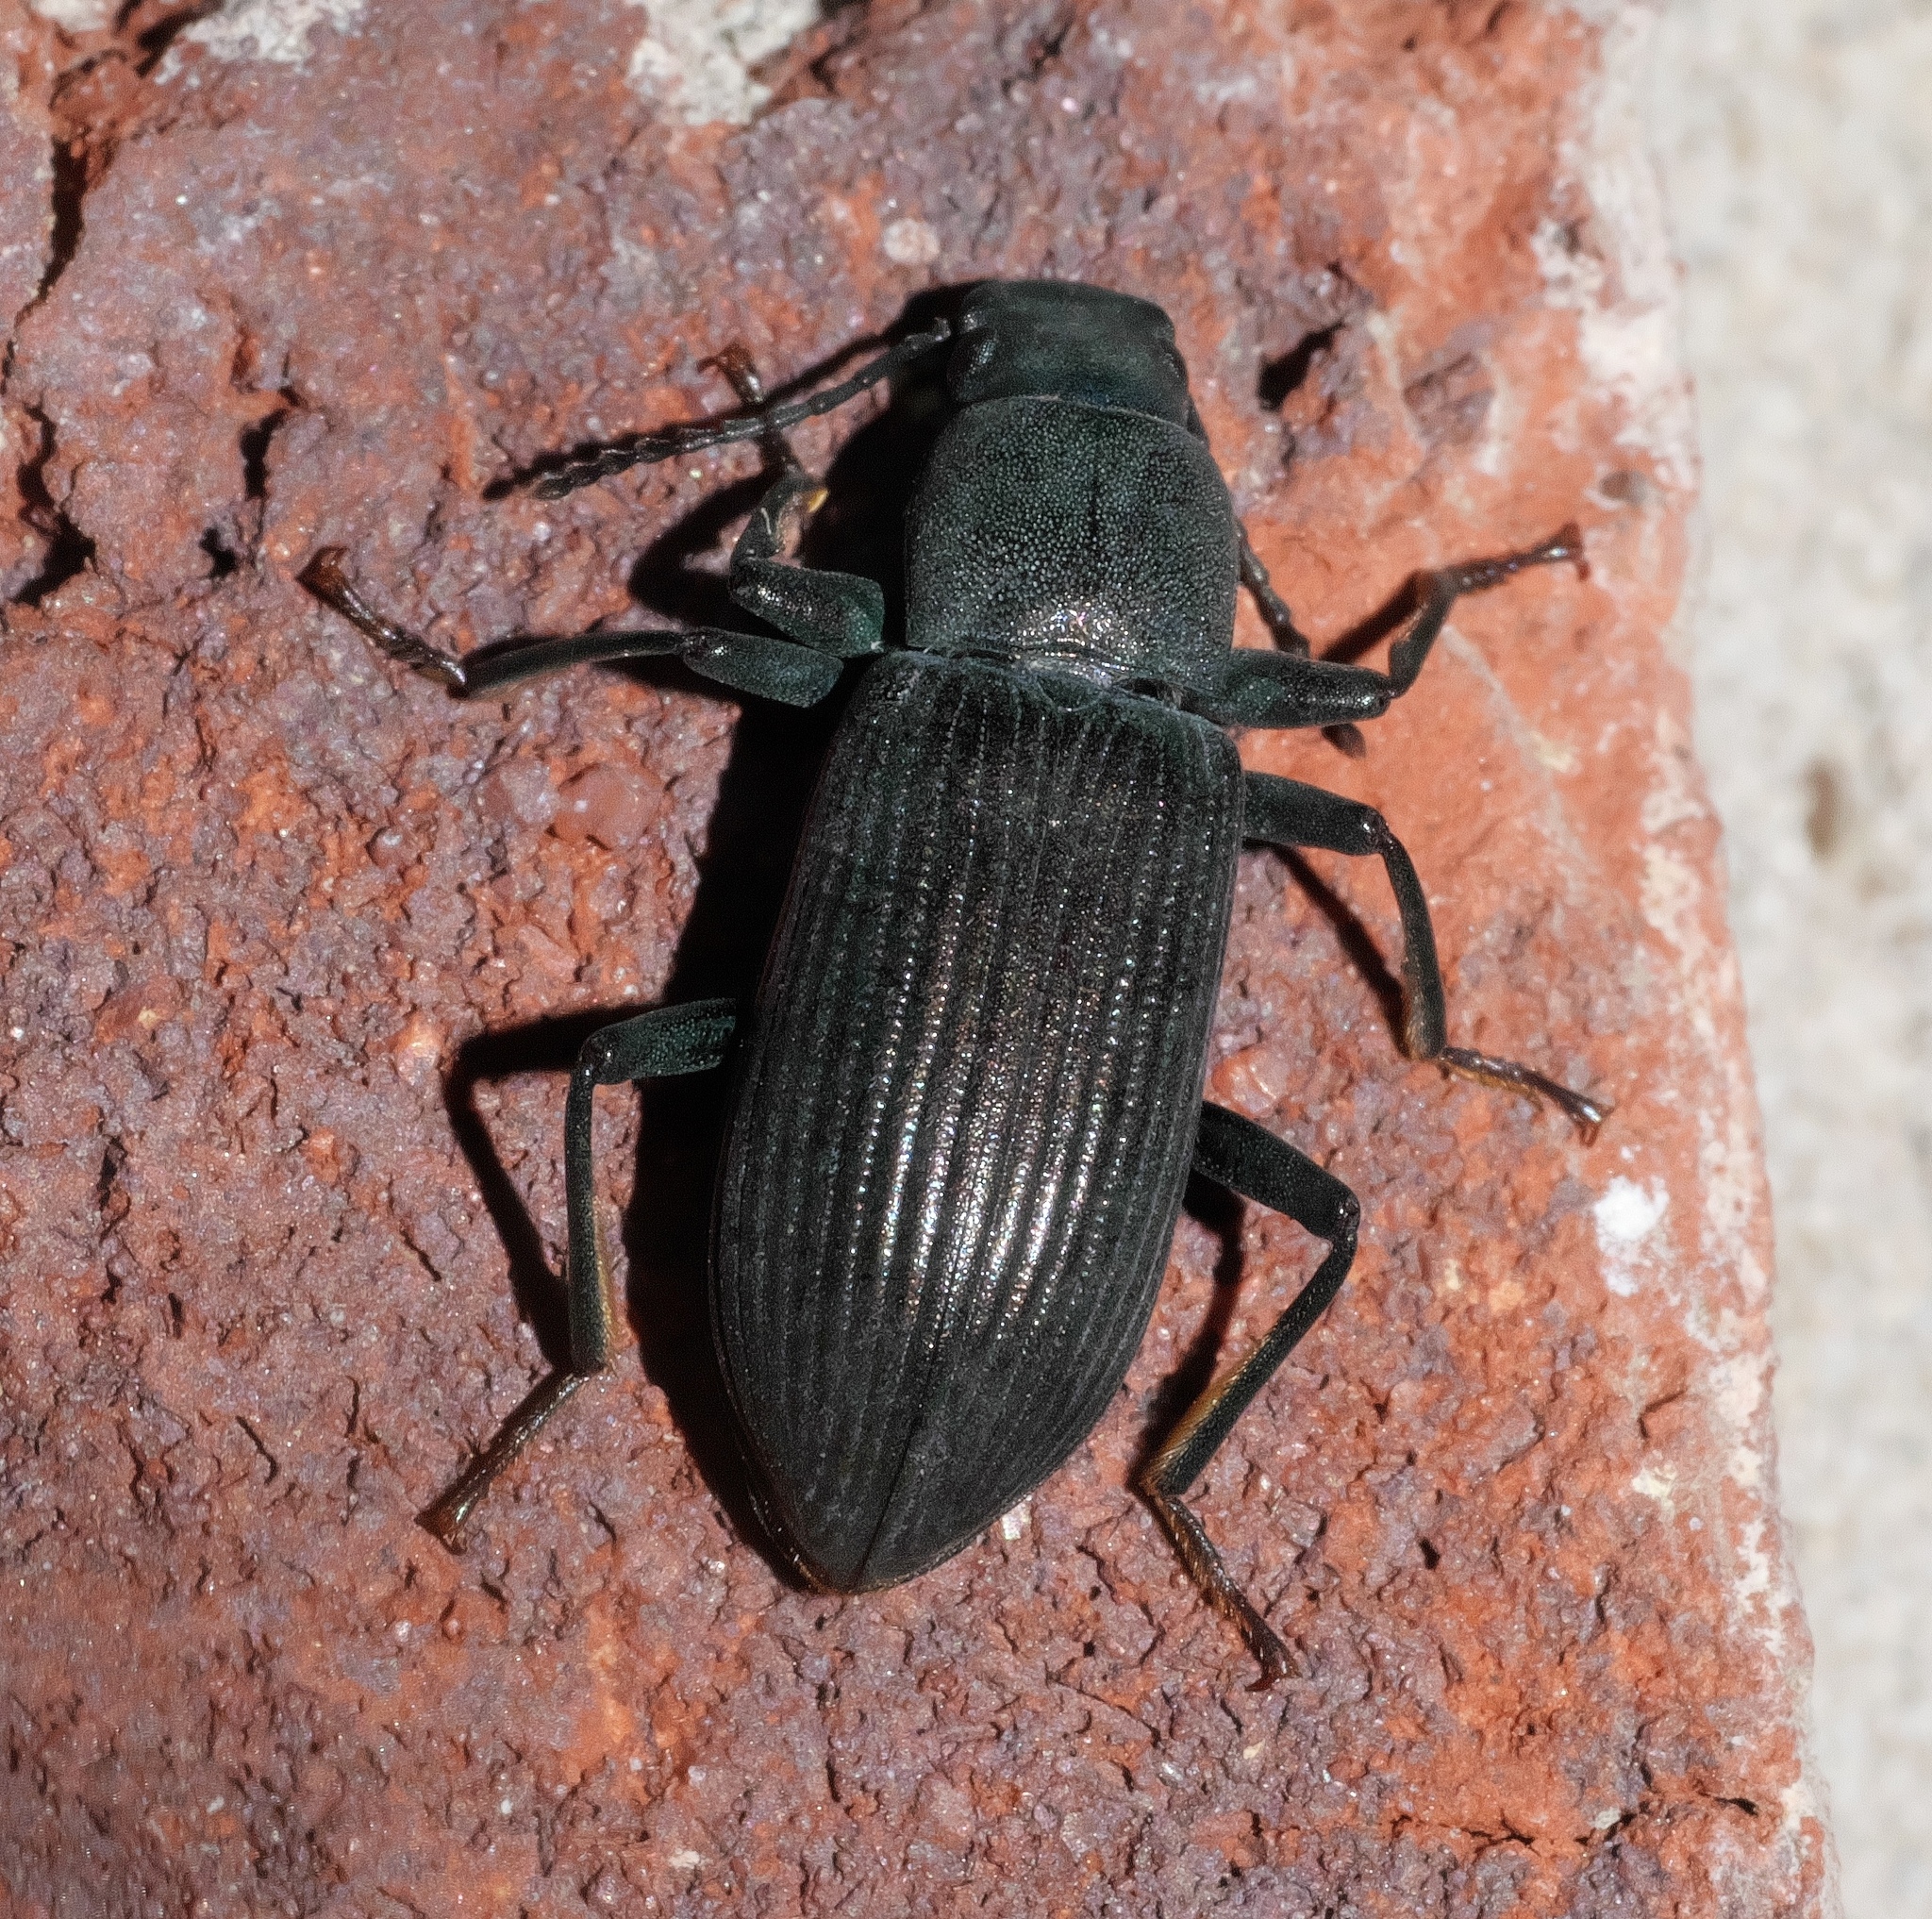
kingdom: Animalia
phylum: Arthropoda
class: Insecta
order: Coleoptera
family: Tenebrionidae
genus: Xylopinus
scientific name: Xylopinus saperdoides
